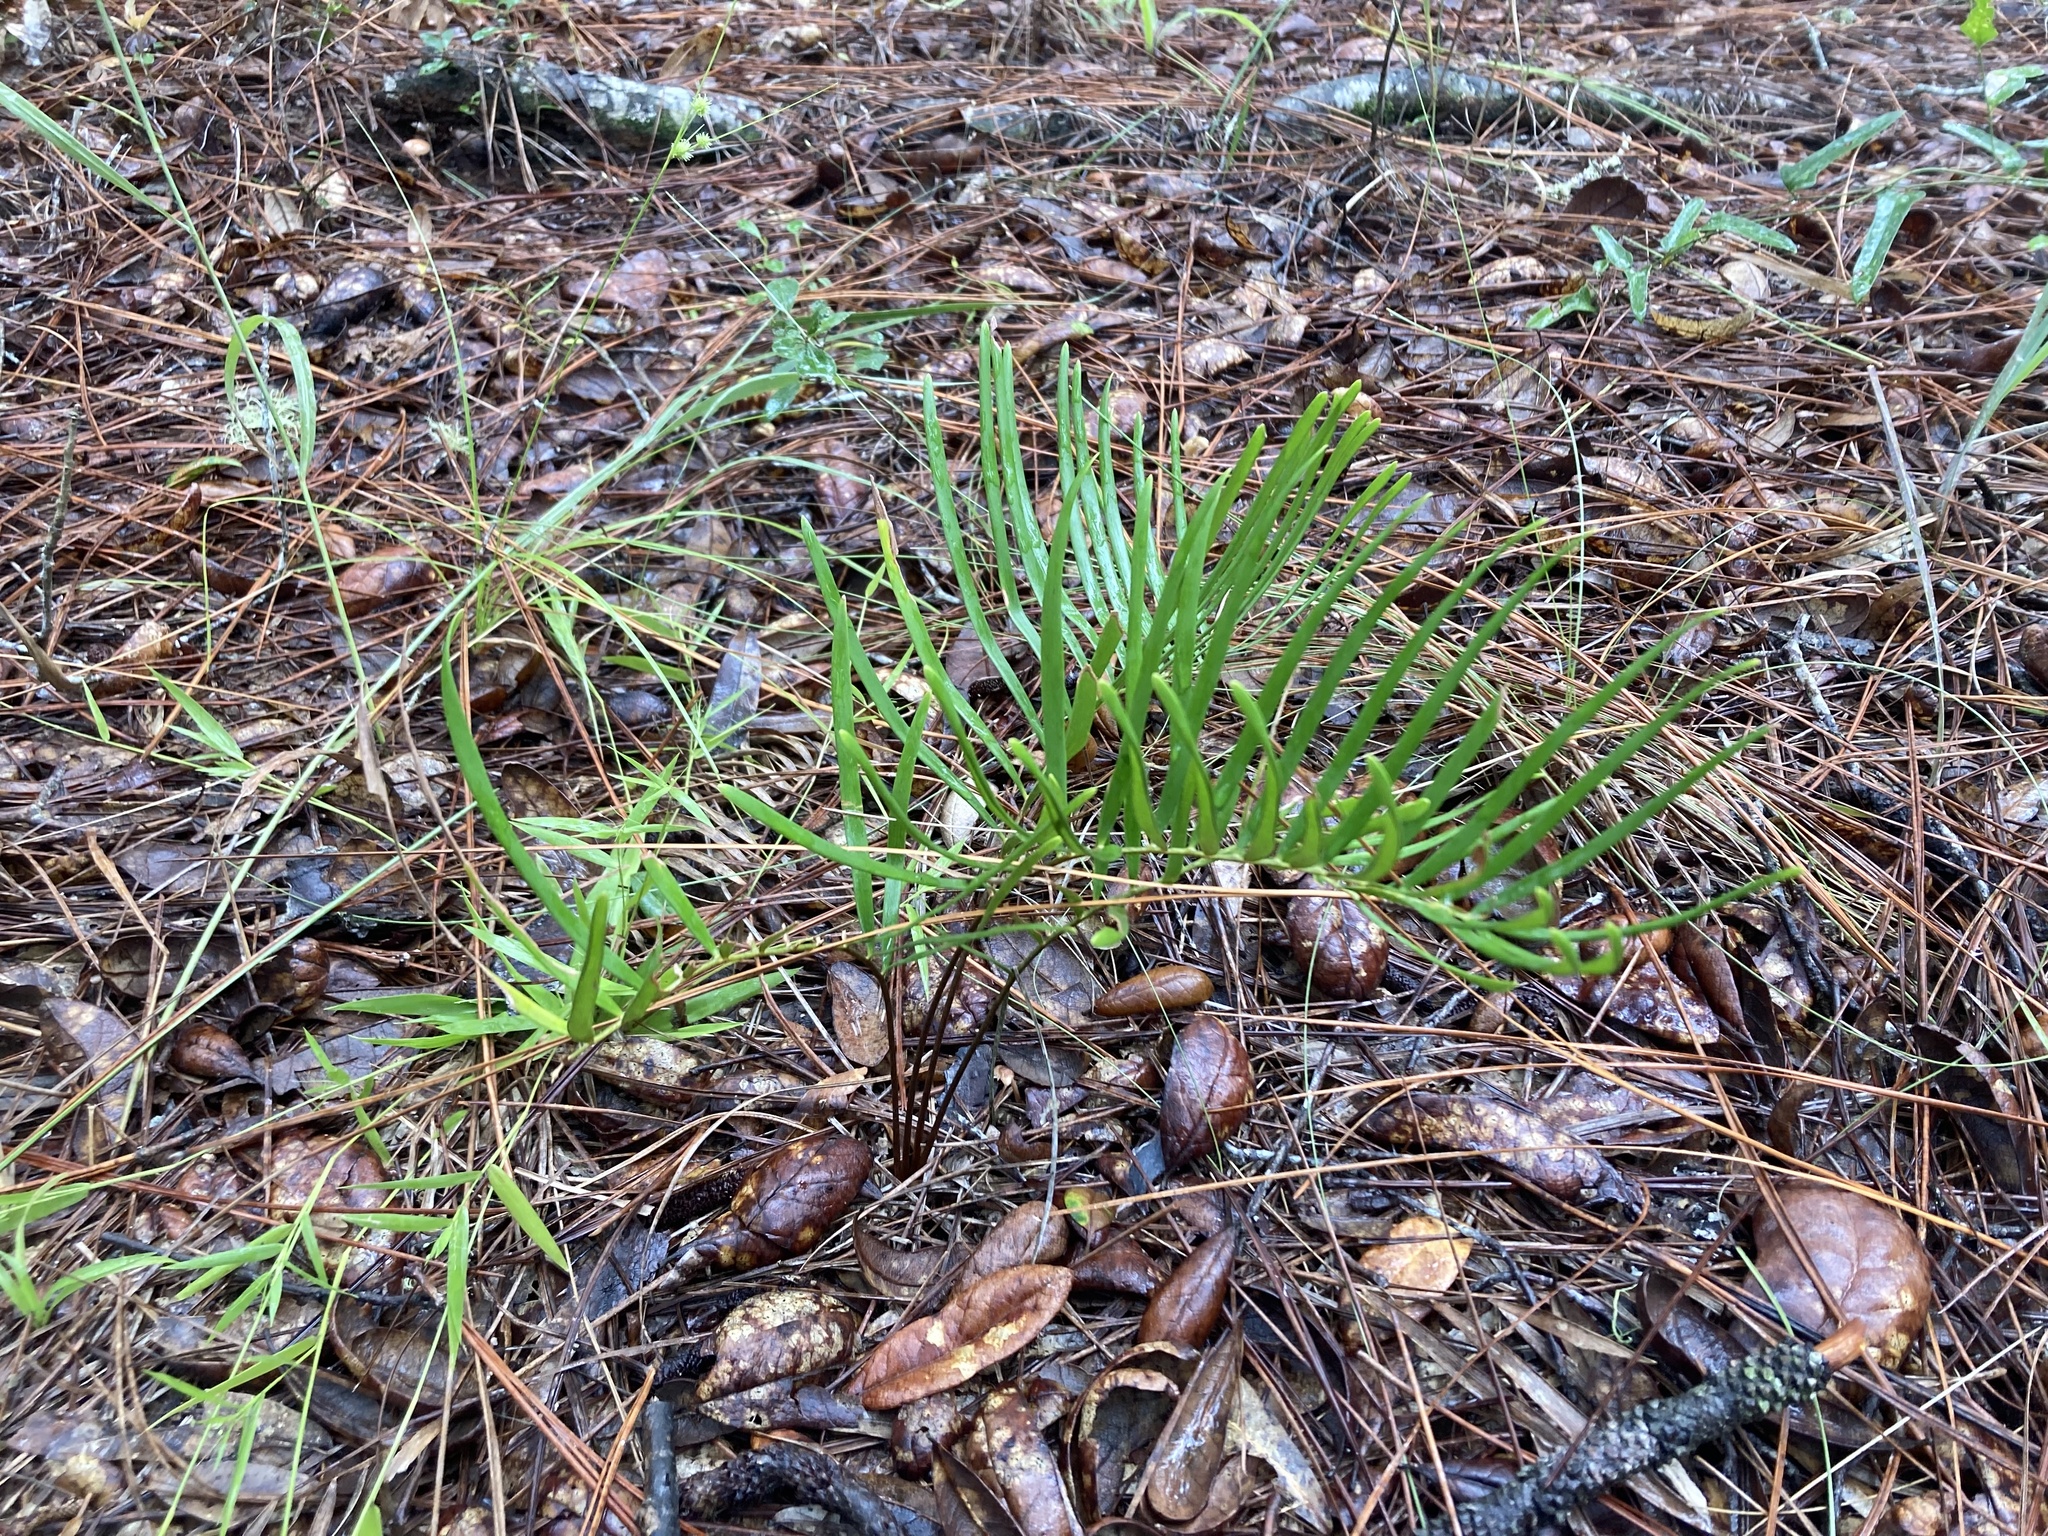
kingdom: Plantae
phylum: Tracheophyta
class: Cycadopsida
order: Cycadales
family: Zamiaceae
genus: Zamia
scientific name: Zamia integrifolia
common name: Florida arrowroot
